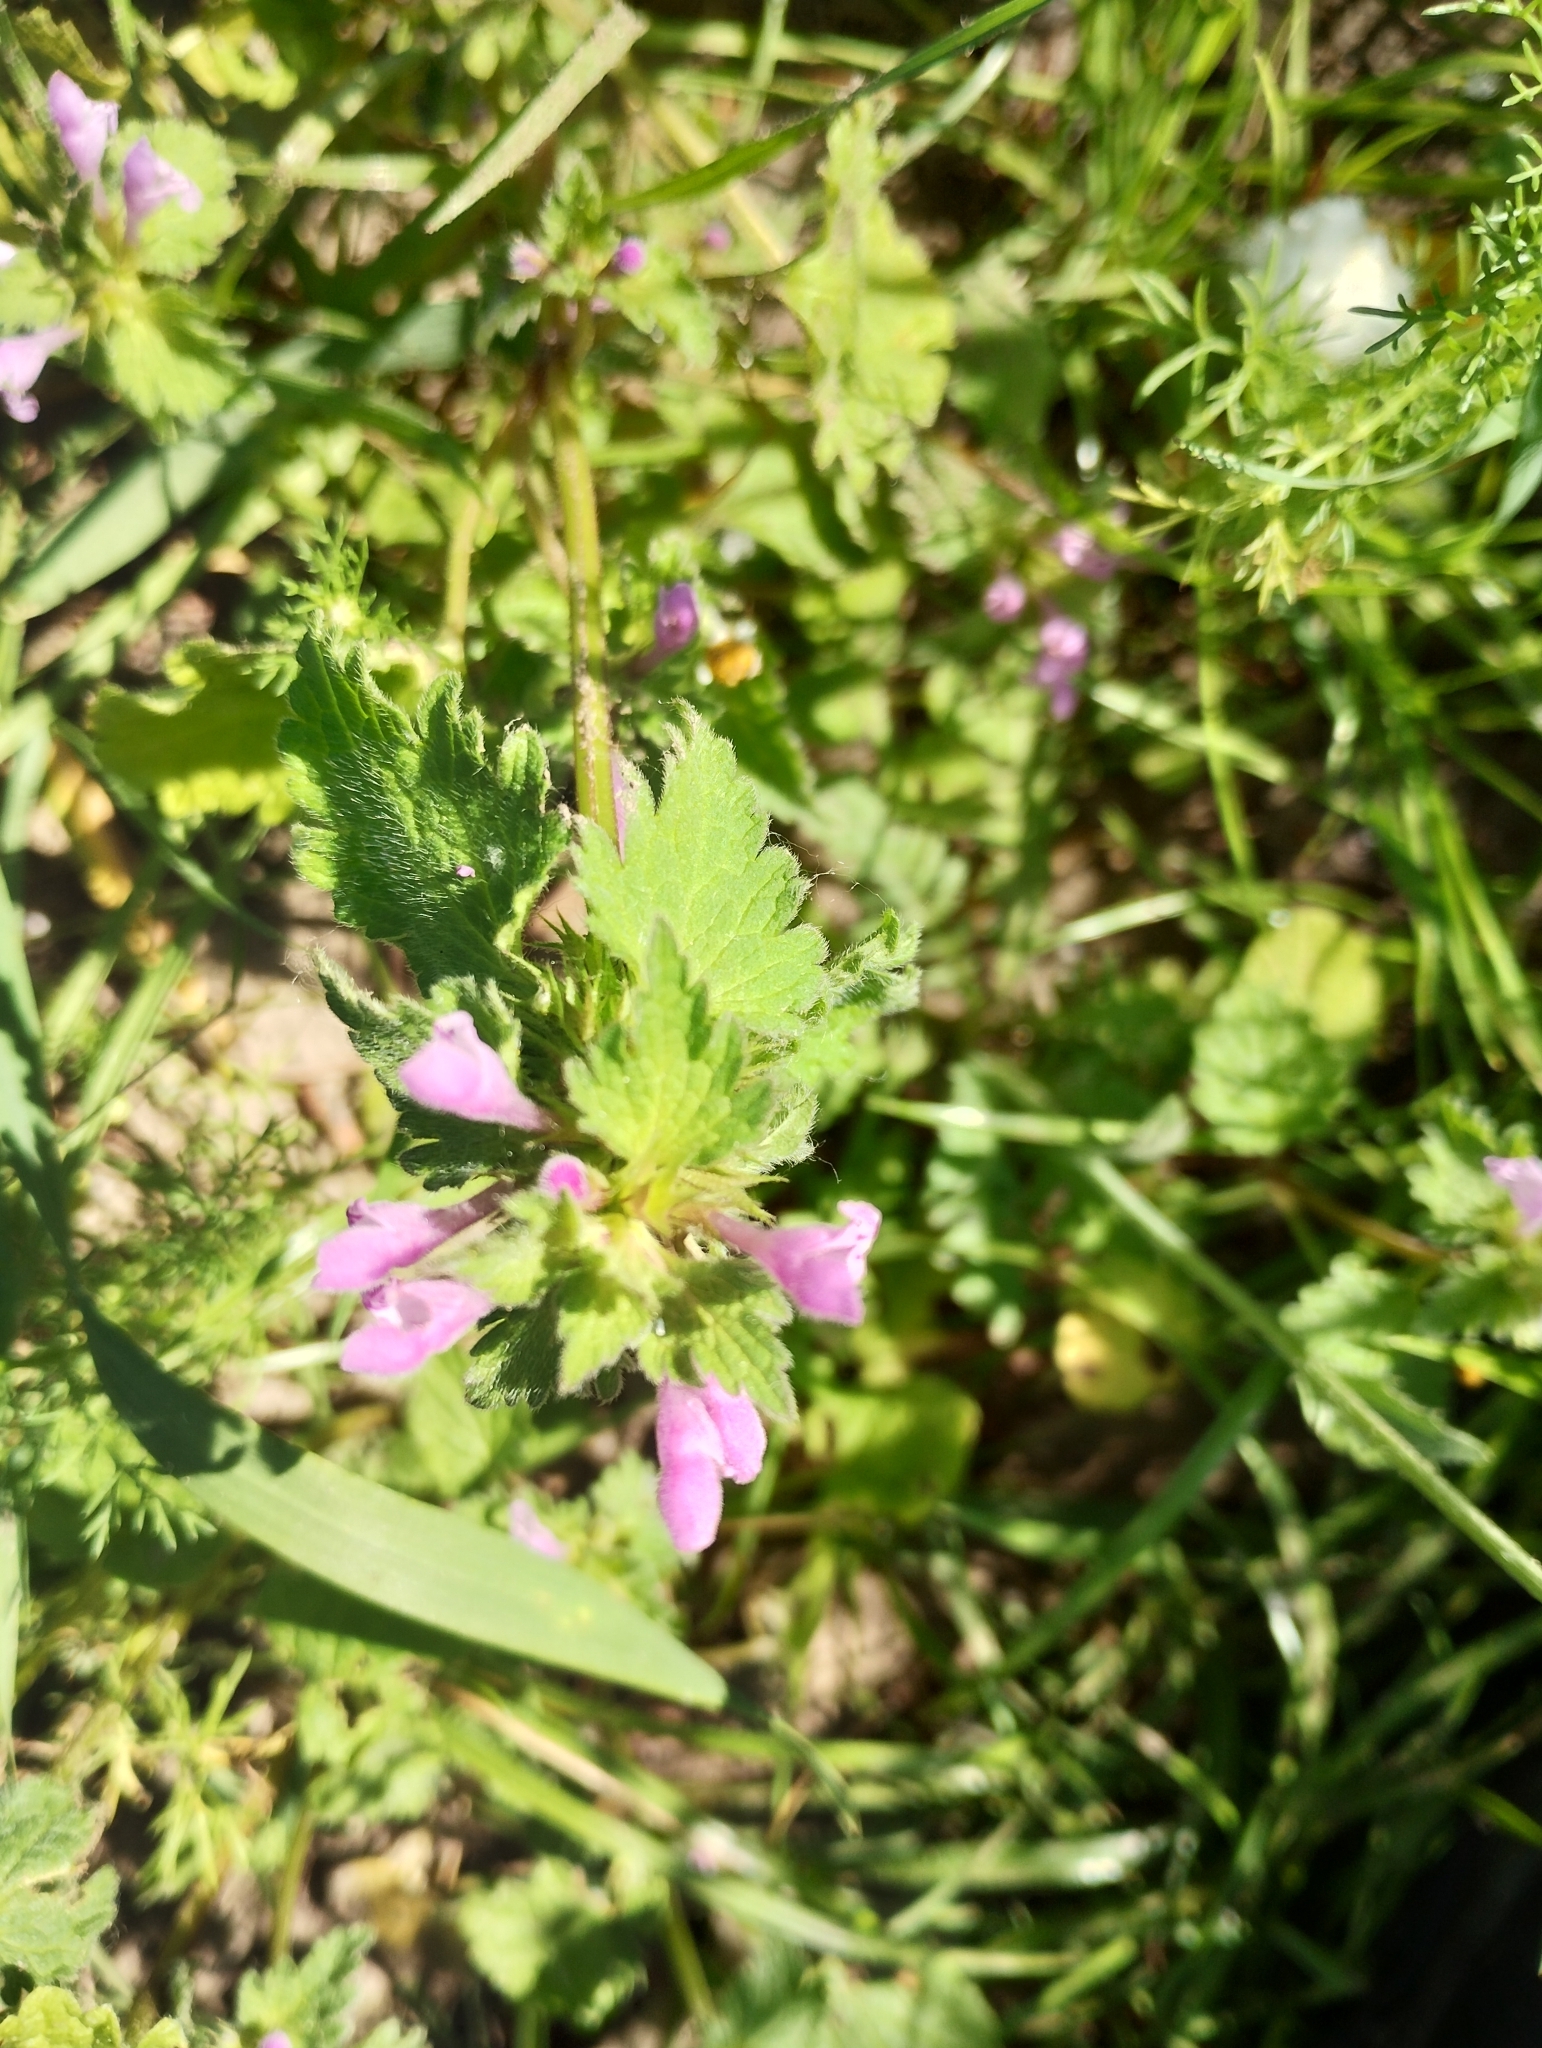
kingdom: Plantae
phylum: Tracheophyta
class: Magnoliopsida
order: Lamiales
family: Lamiaceae
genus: Lamium
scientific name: Lamium hybridum
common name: Cut-leaved dead-nettle
